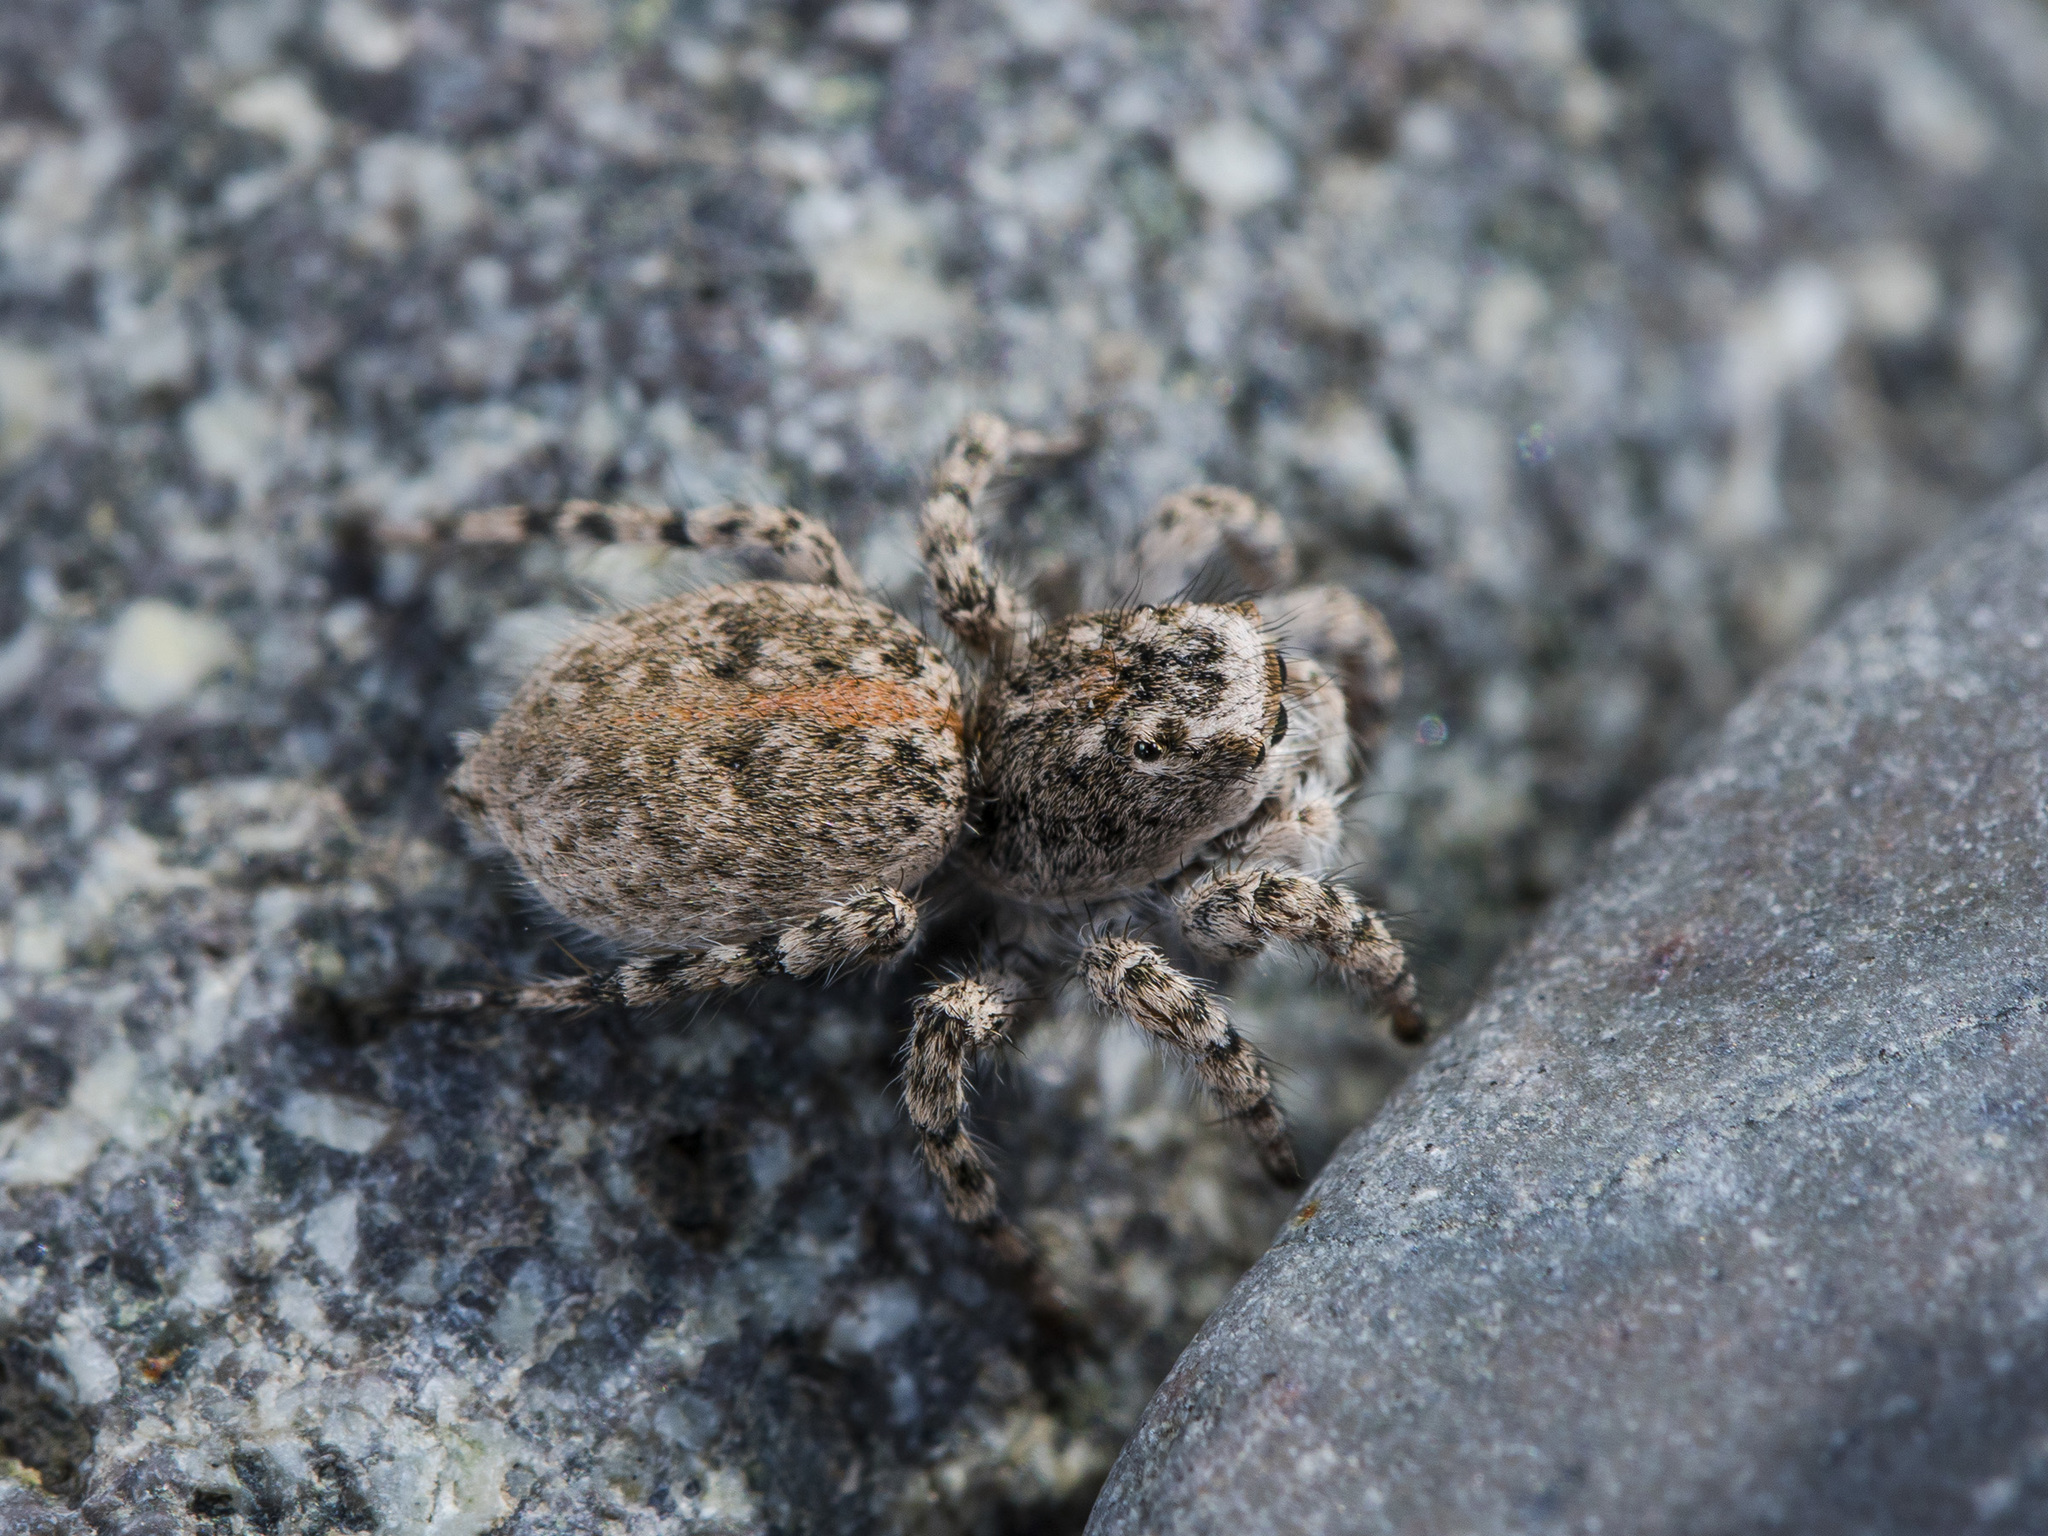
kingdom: Animalia
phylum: Arthropoda
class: Arachnida
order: Araneae
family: Salticidae
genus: Aelurillus
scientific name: Aelurillus dubatolovi
